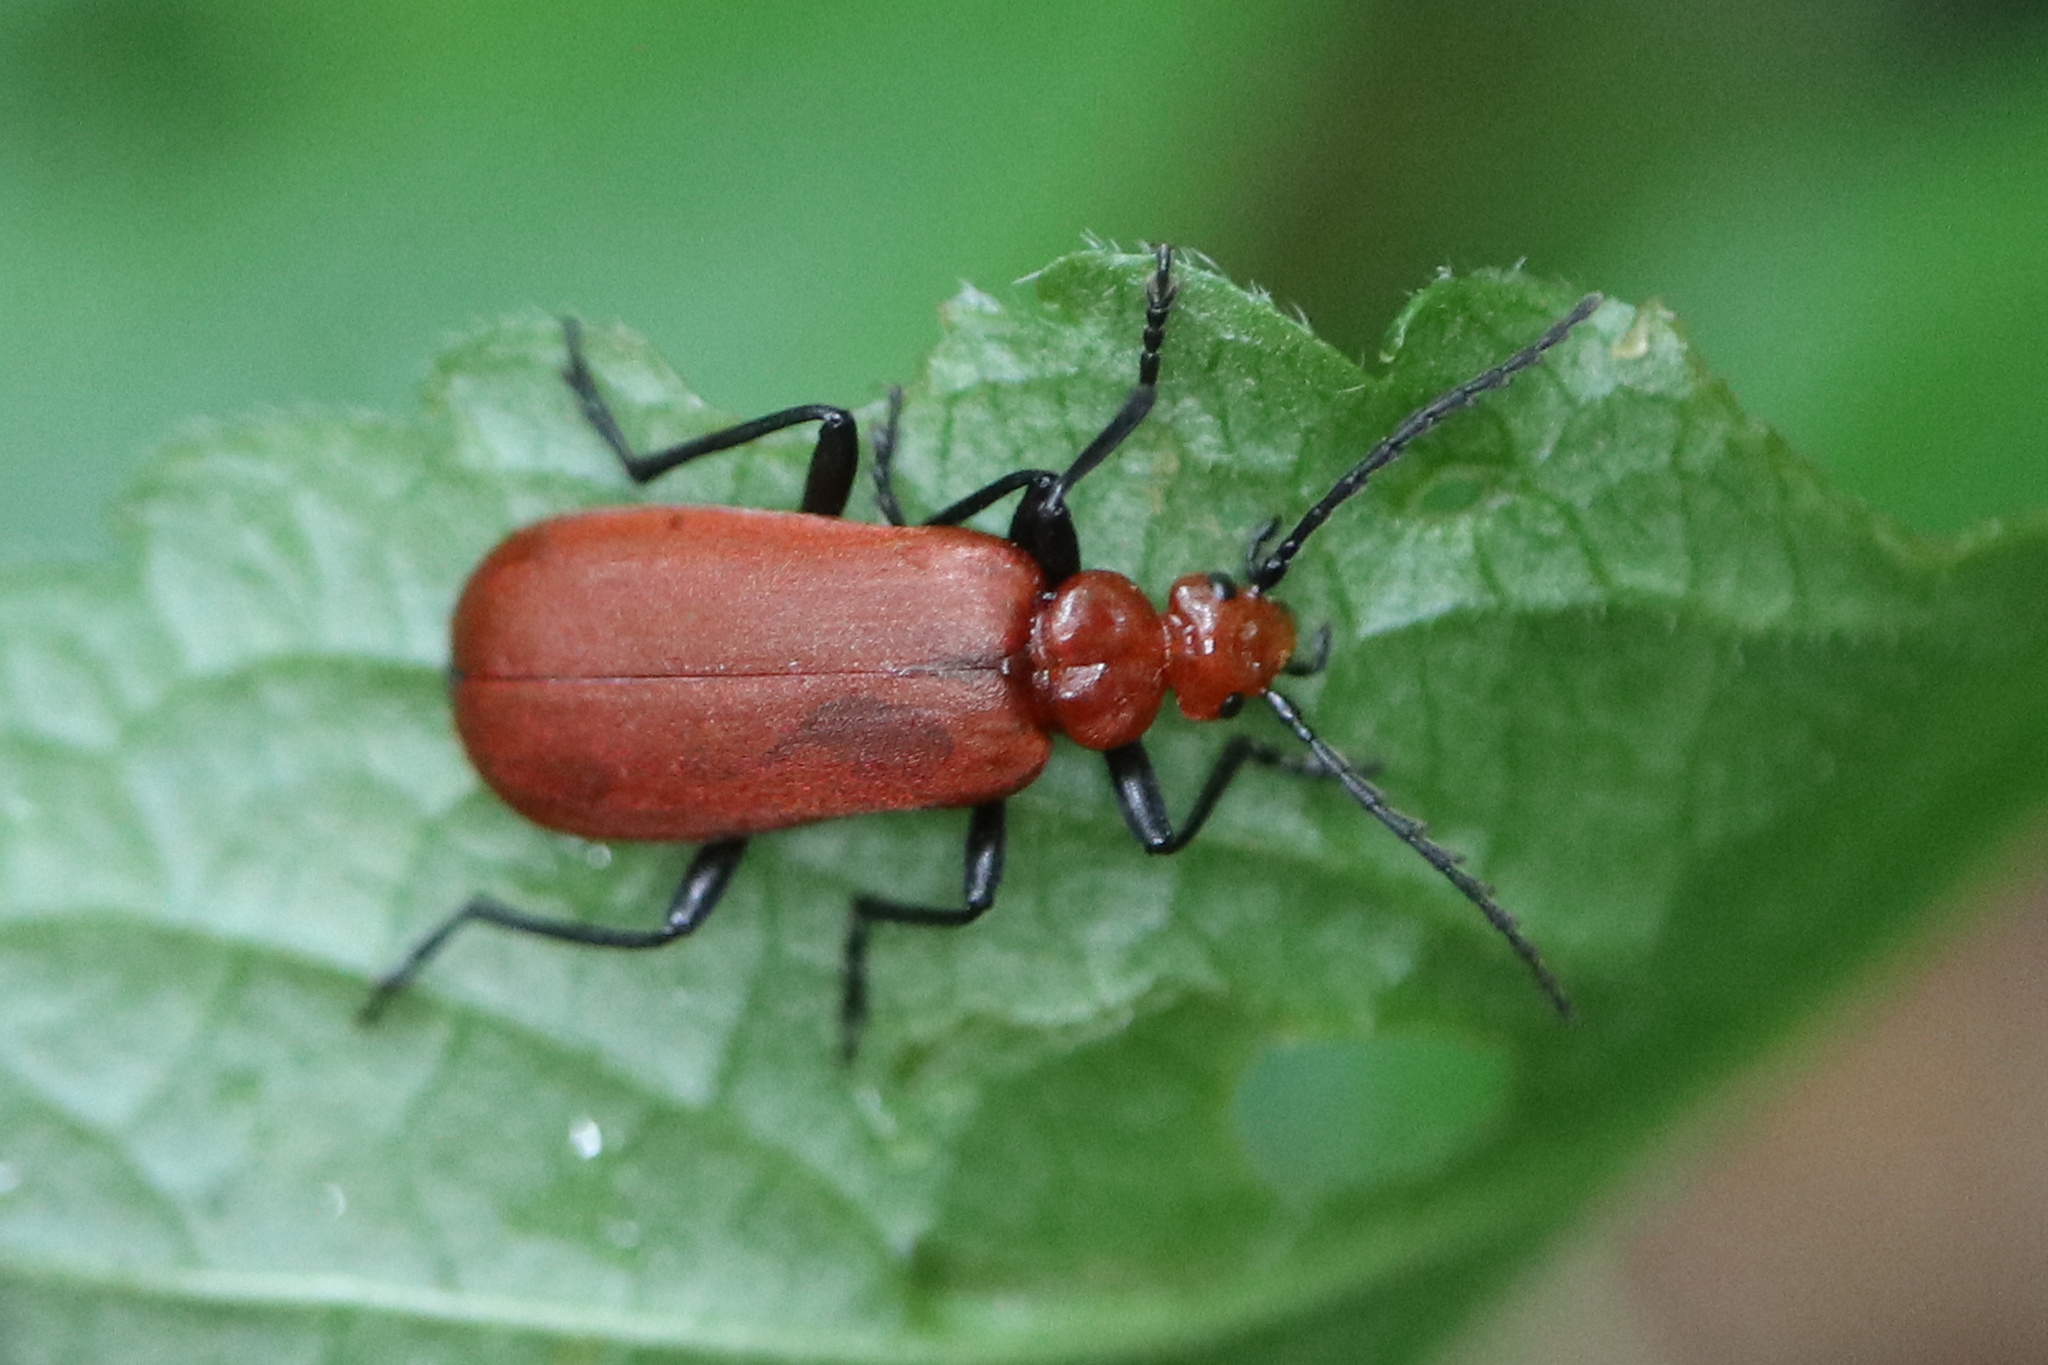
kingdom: Animalia
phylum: Arthropoda
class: Insecta
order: Coleoptera
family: Pyrochroidae
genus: Pyrochroa
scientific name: Pyrochroa serraticornis
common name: Red-headed cardinal beetle
